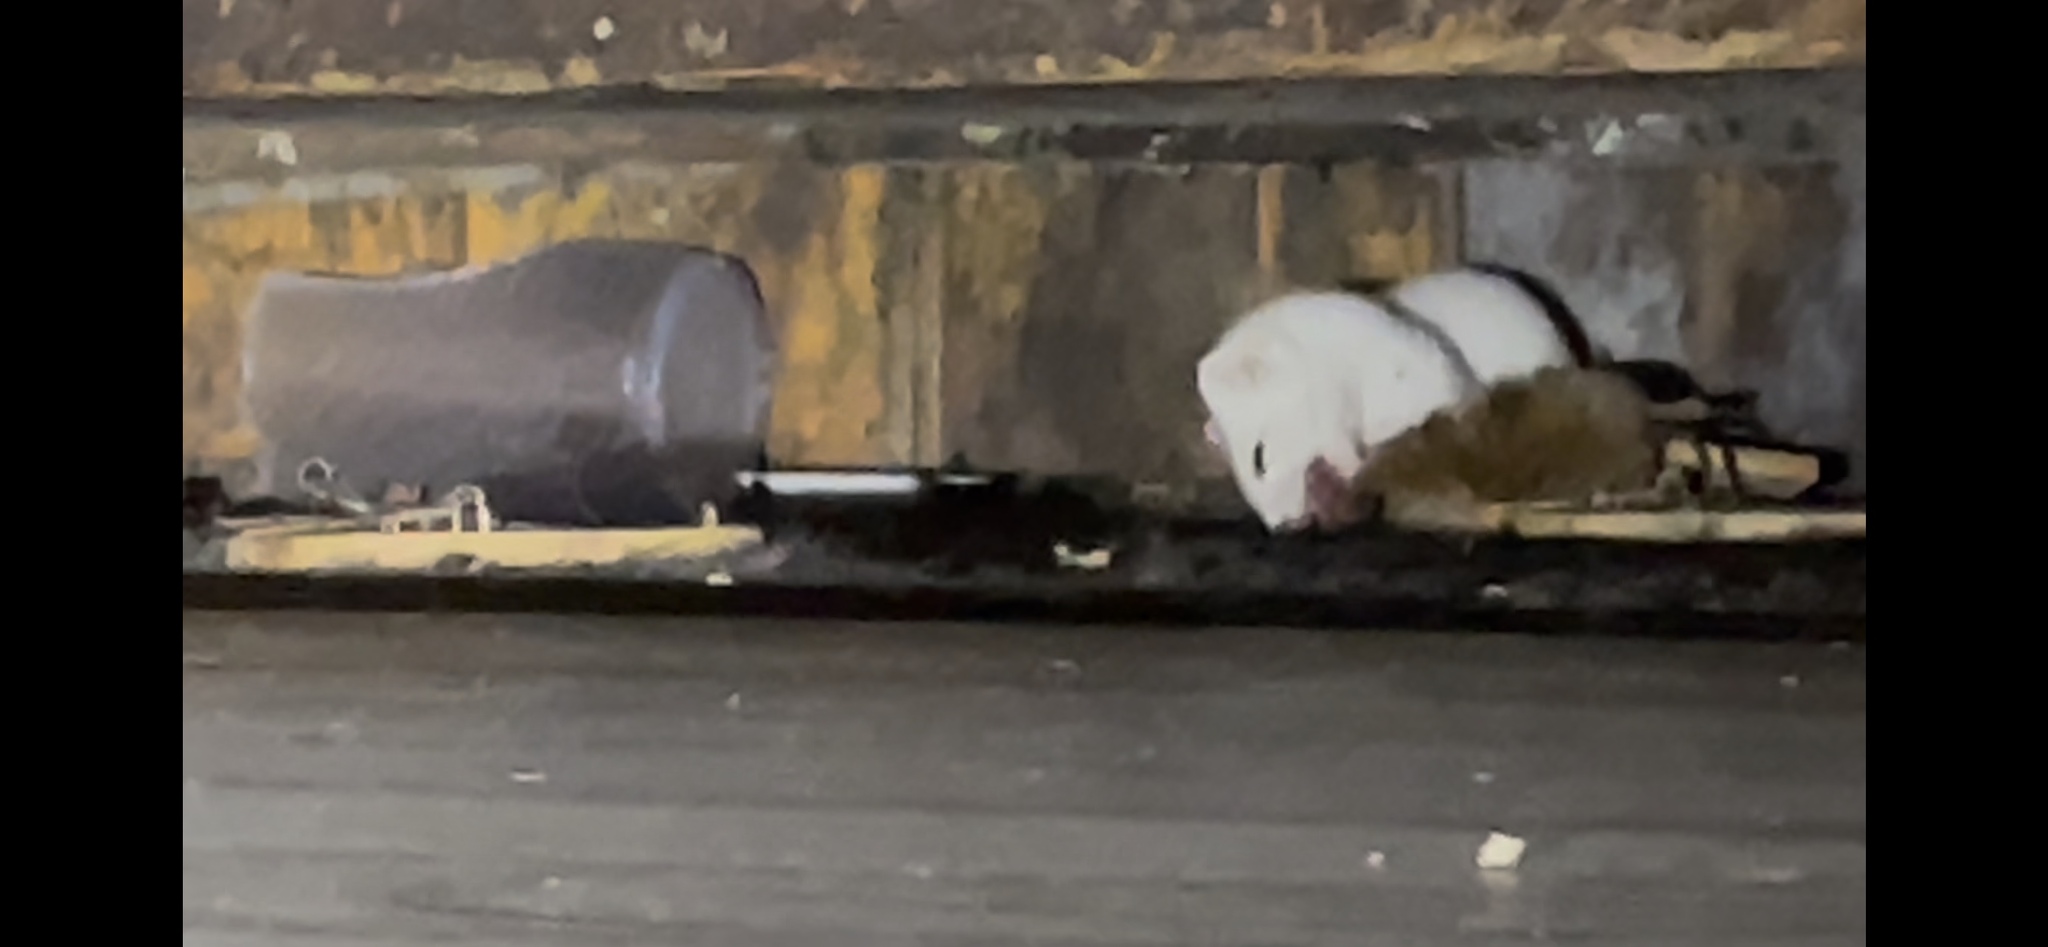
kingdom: Animalia
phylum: Chordata
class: Mammalia
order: Carnivora
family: Mustelidae
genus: Mustela
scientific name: Mustela erminea
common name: Stoat
